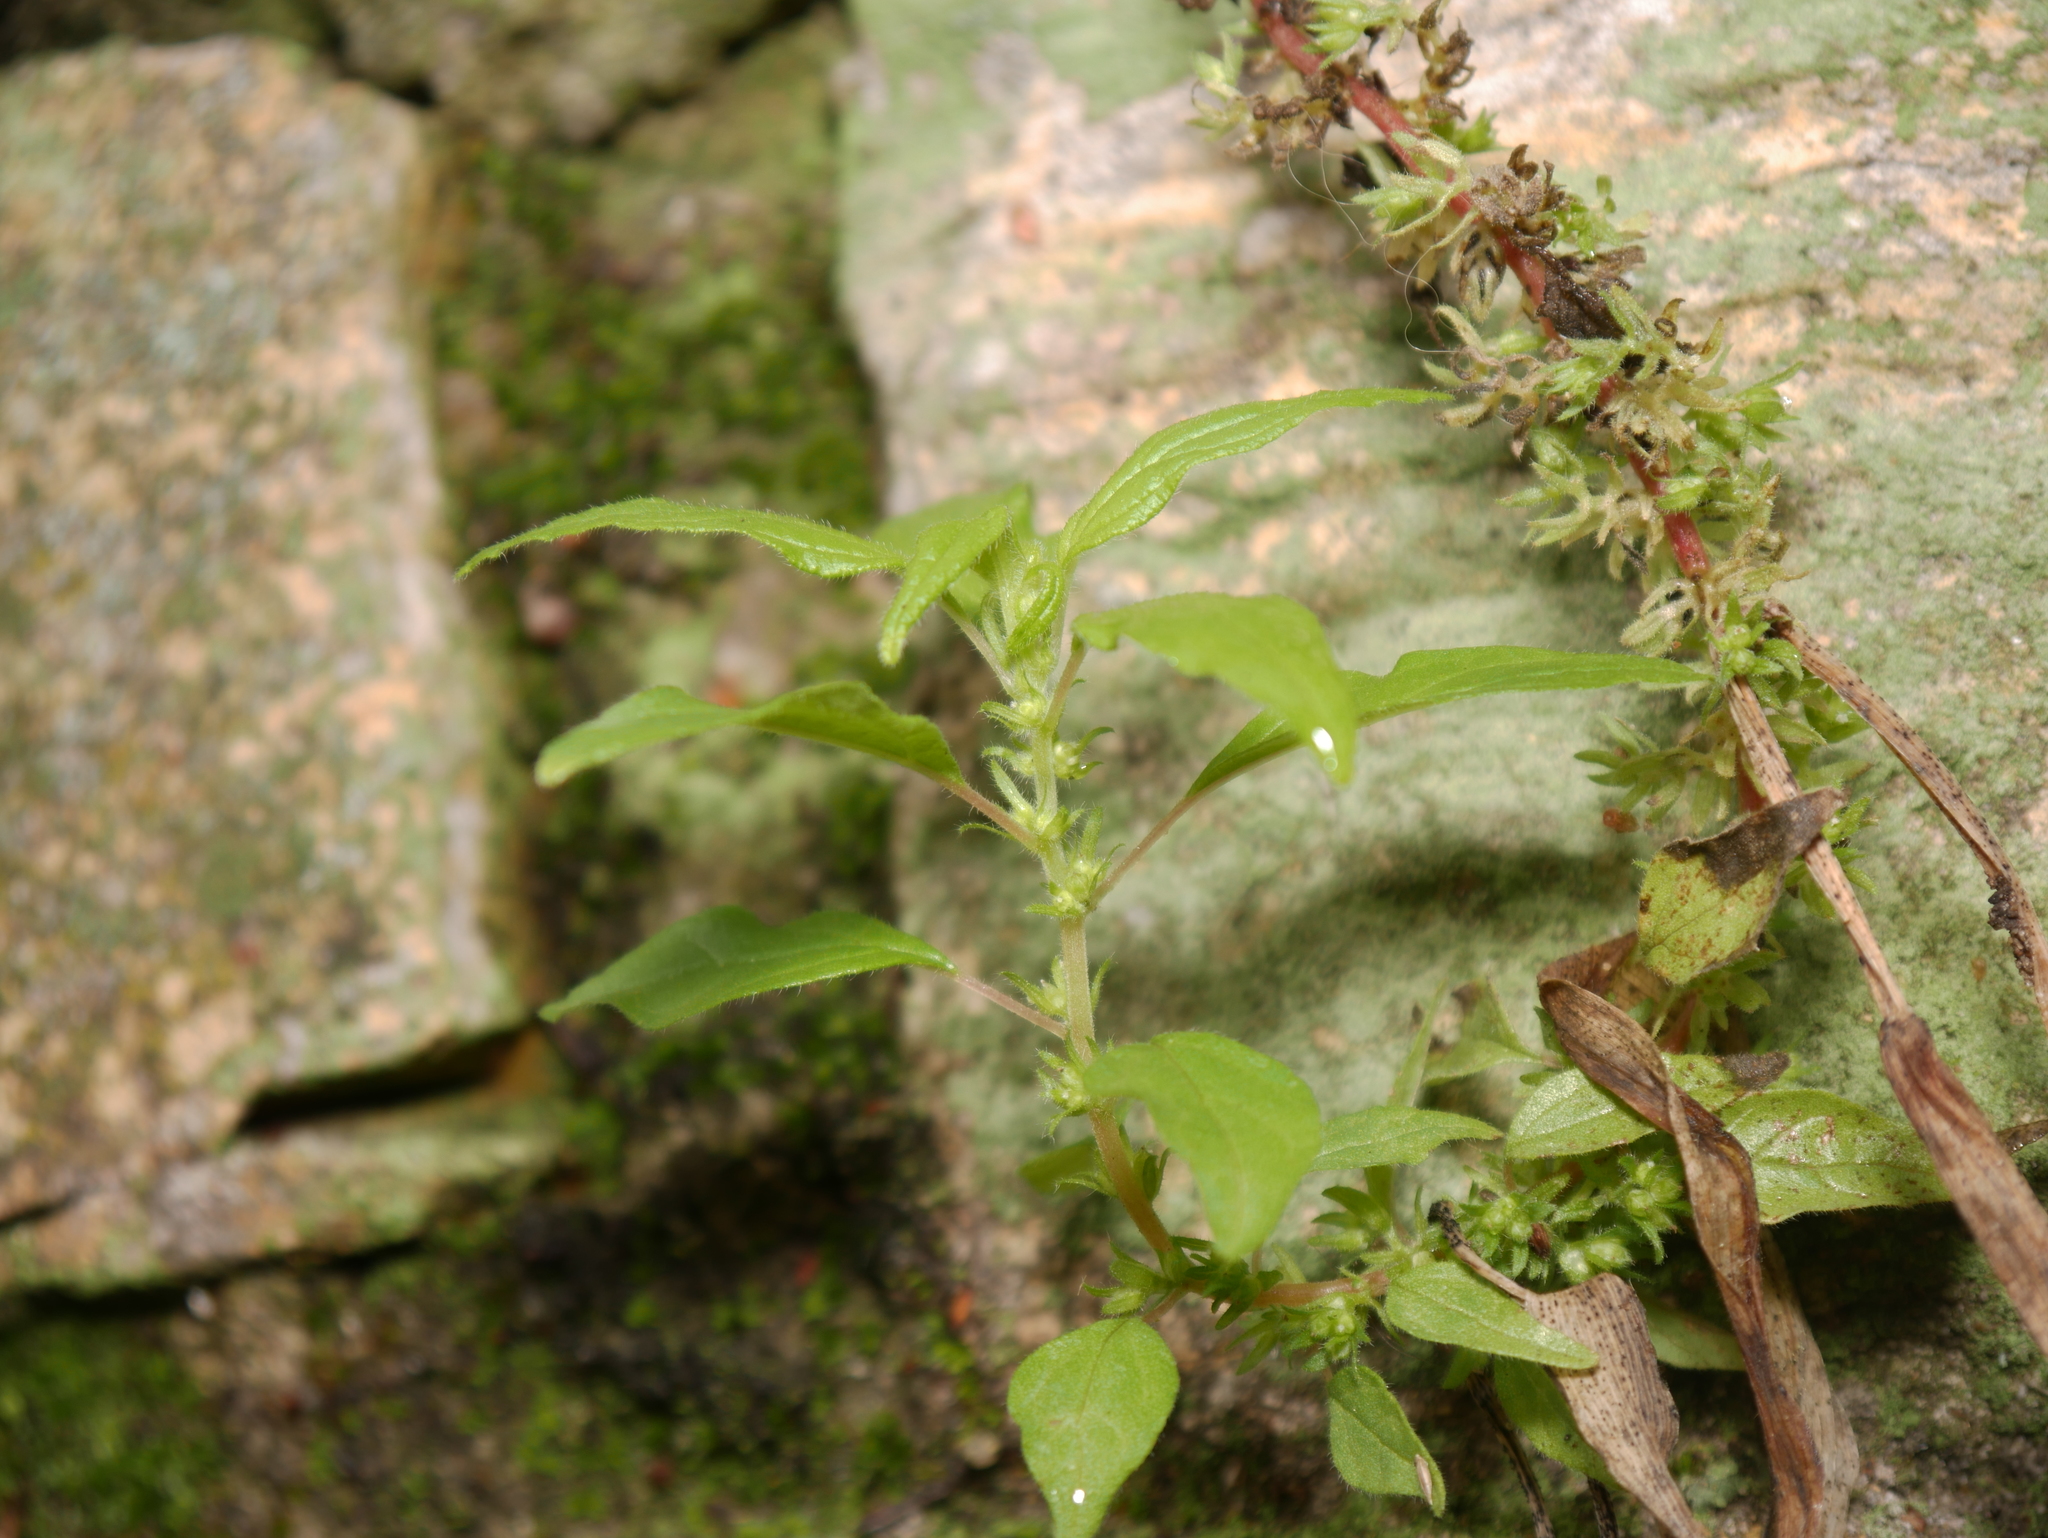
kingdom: Plantae
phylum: Tracheophyta
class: Magnoliopsida
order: Rosales
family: Urticaceae
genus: Parietaria
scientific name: Parietaria pensylvanica
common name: Pennsylvania pellitory
